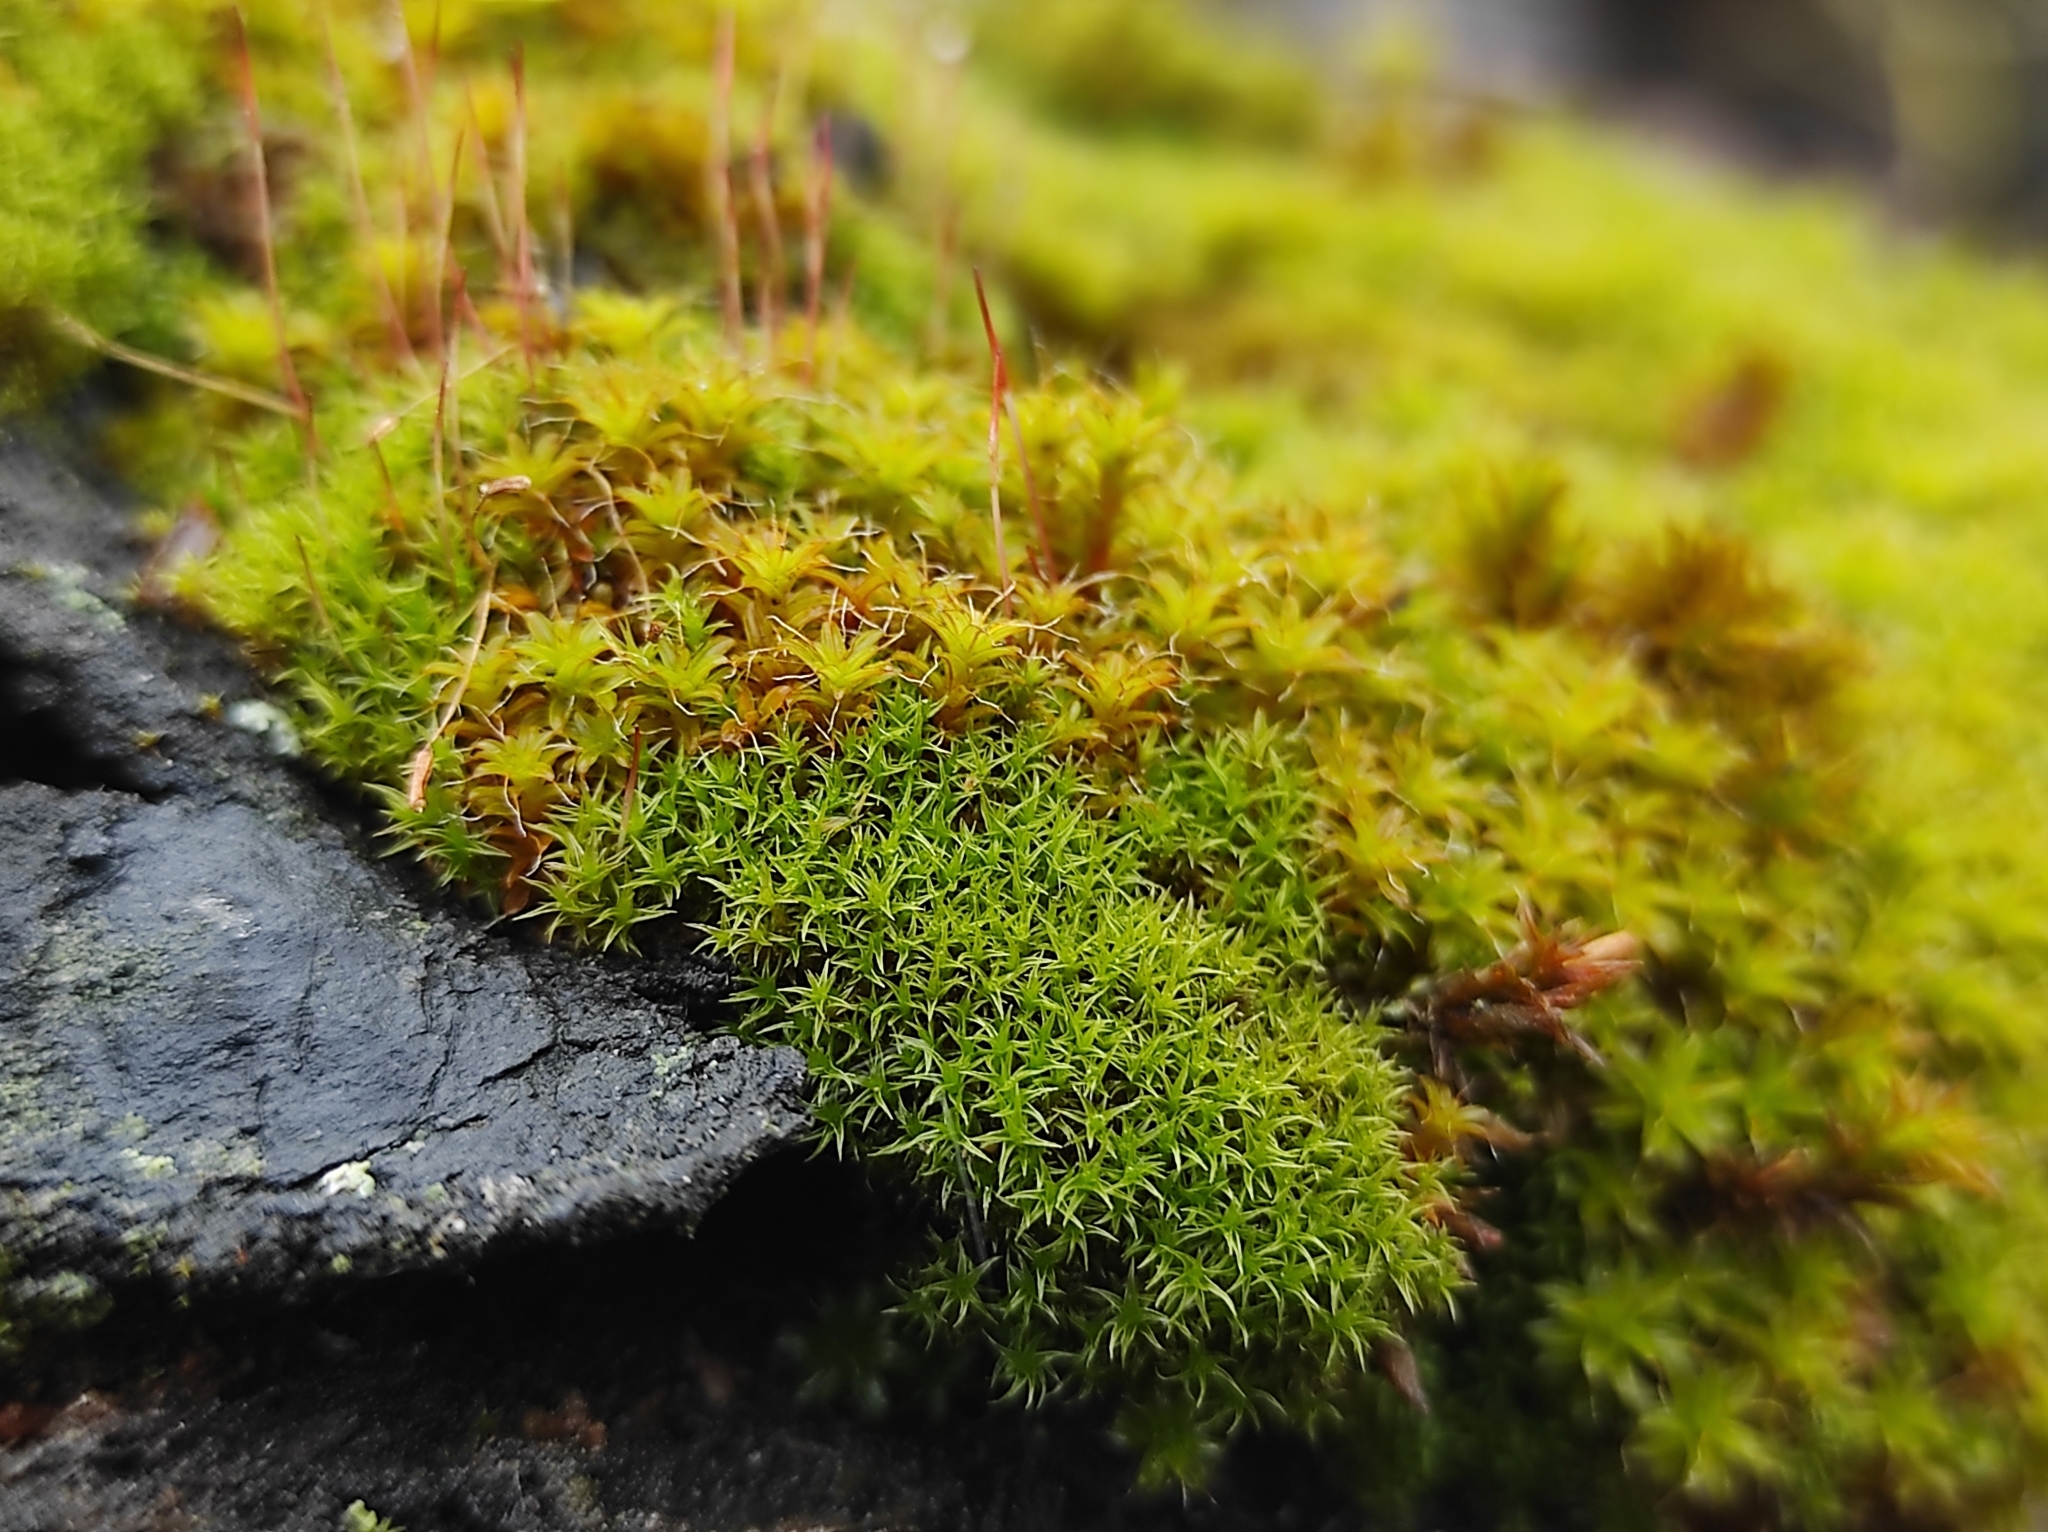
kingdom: Plantae
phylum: Bryophyta
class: Bryopsida
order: Pottiales
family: Pottiaceae
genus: Syntrichia
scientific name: Syntrichia ruralis
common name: Sidewalk screw moss
